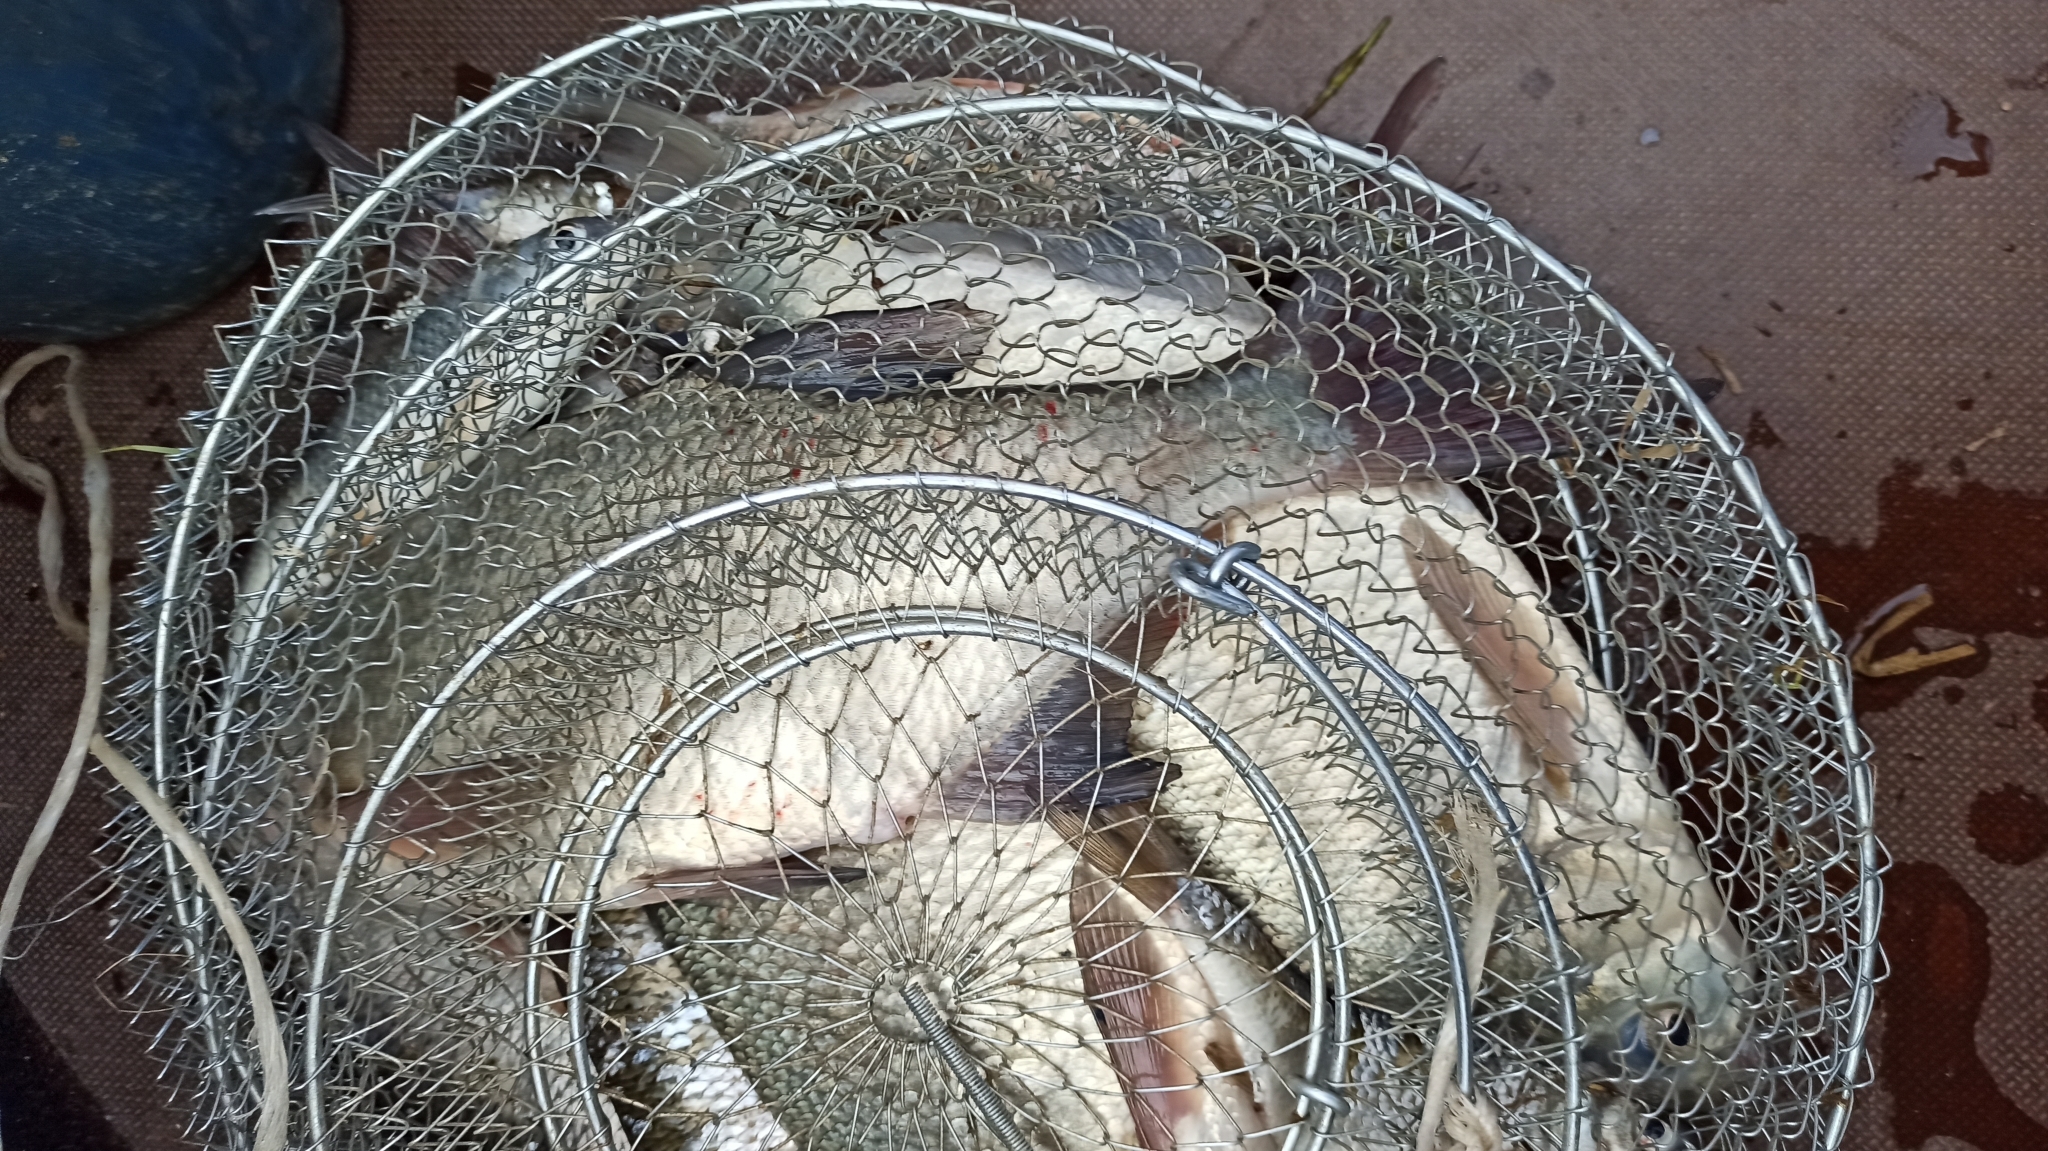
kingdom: Animalia
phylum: Chordata
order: Cypriniformes
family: Cyprinidae
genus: Abramis
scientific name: Abramis brama
